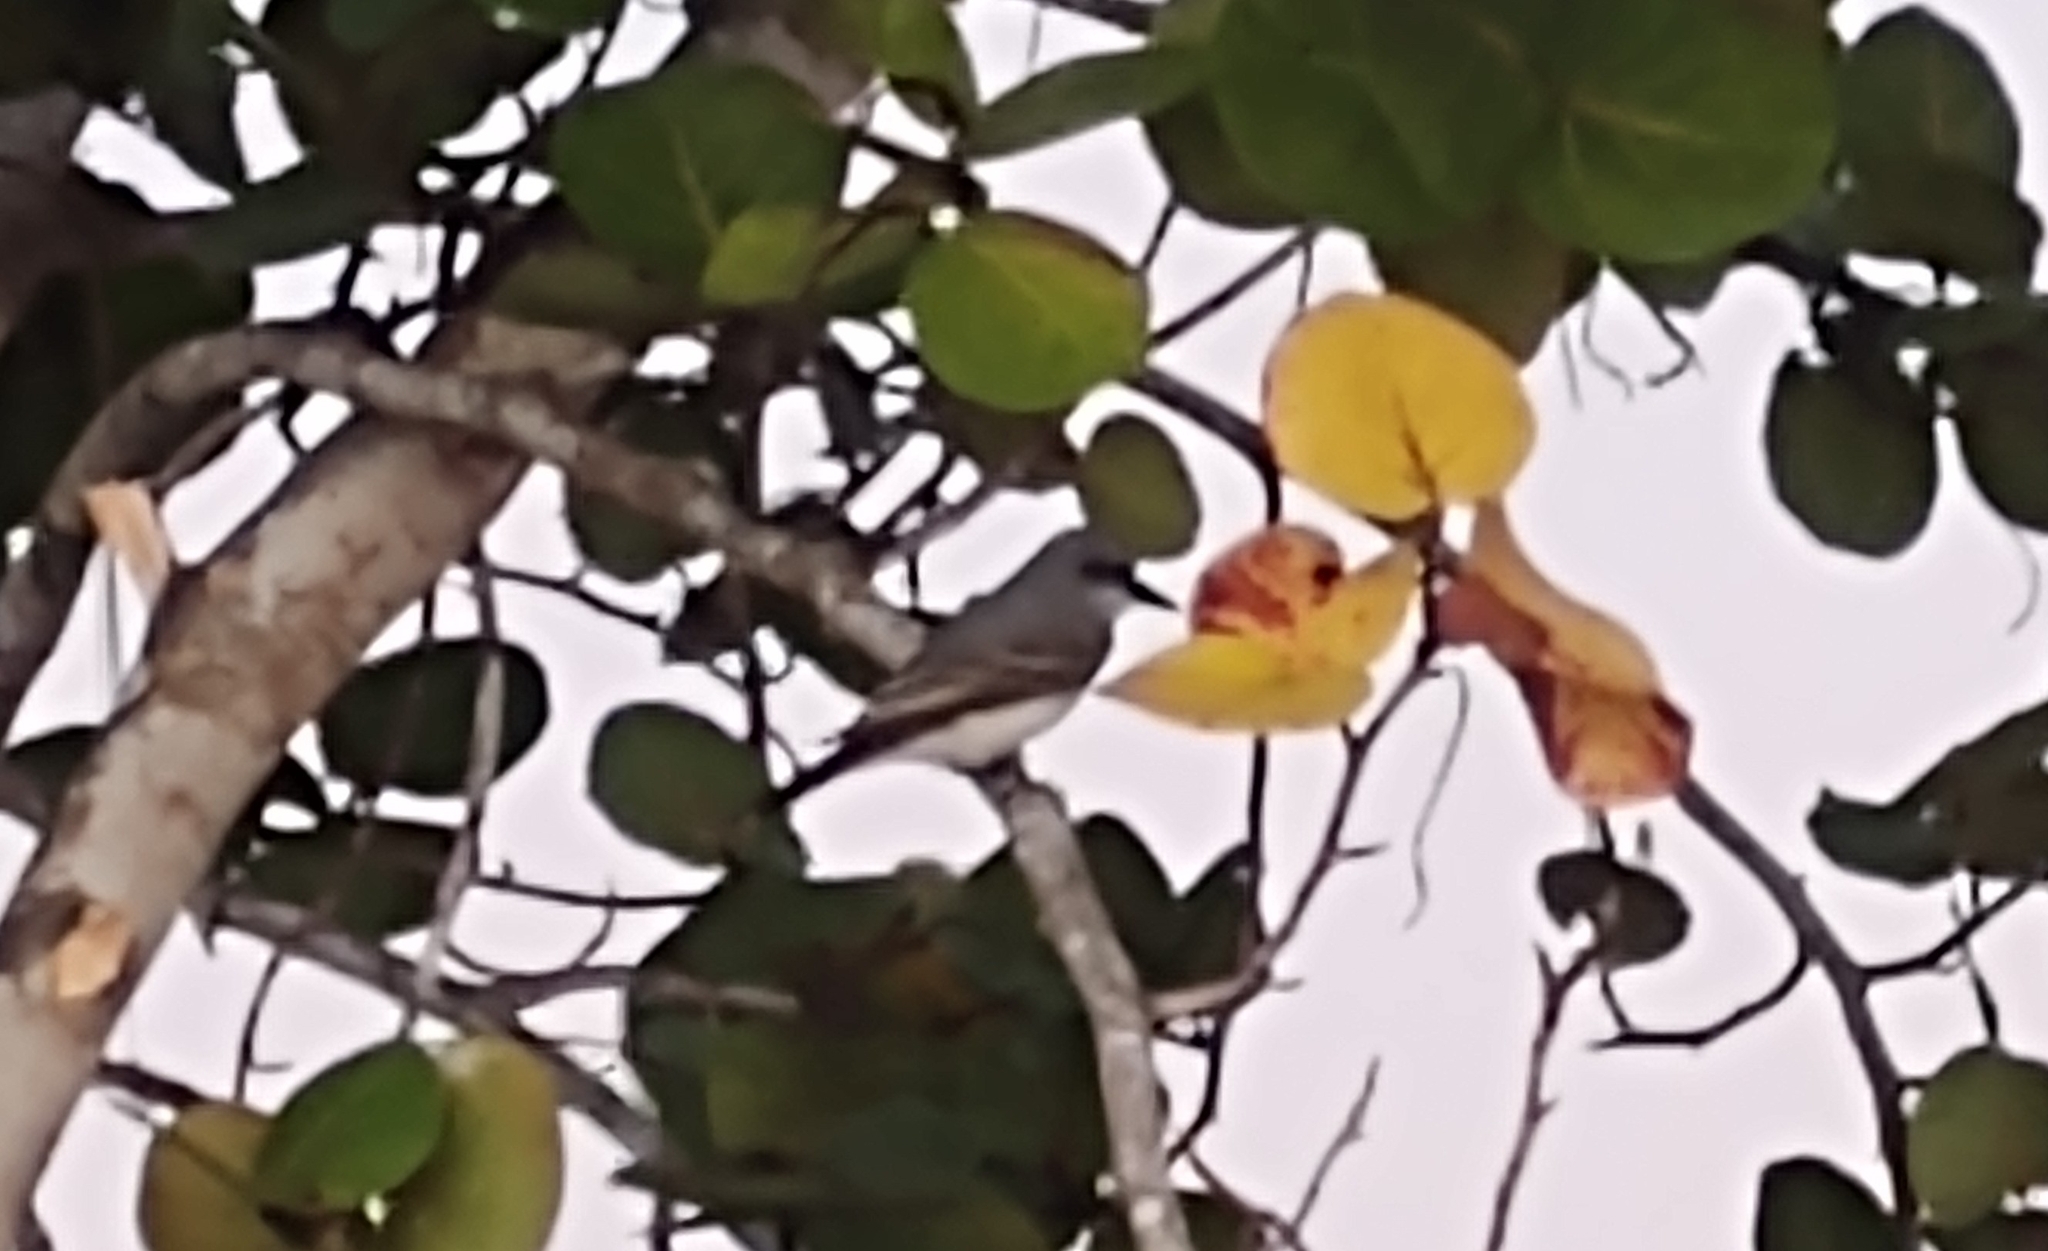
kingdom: Animalia
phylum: Chordata
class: Aves
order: Passeriformes
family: Tyrannidae
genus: Tyrannus
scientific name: Tyrannus dominicensis
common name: Gray kingbird
